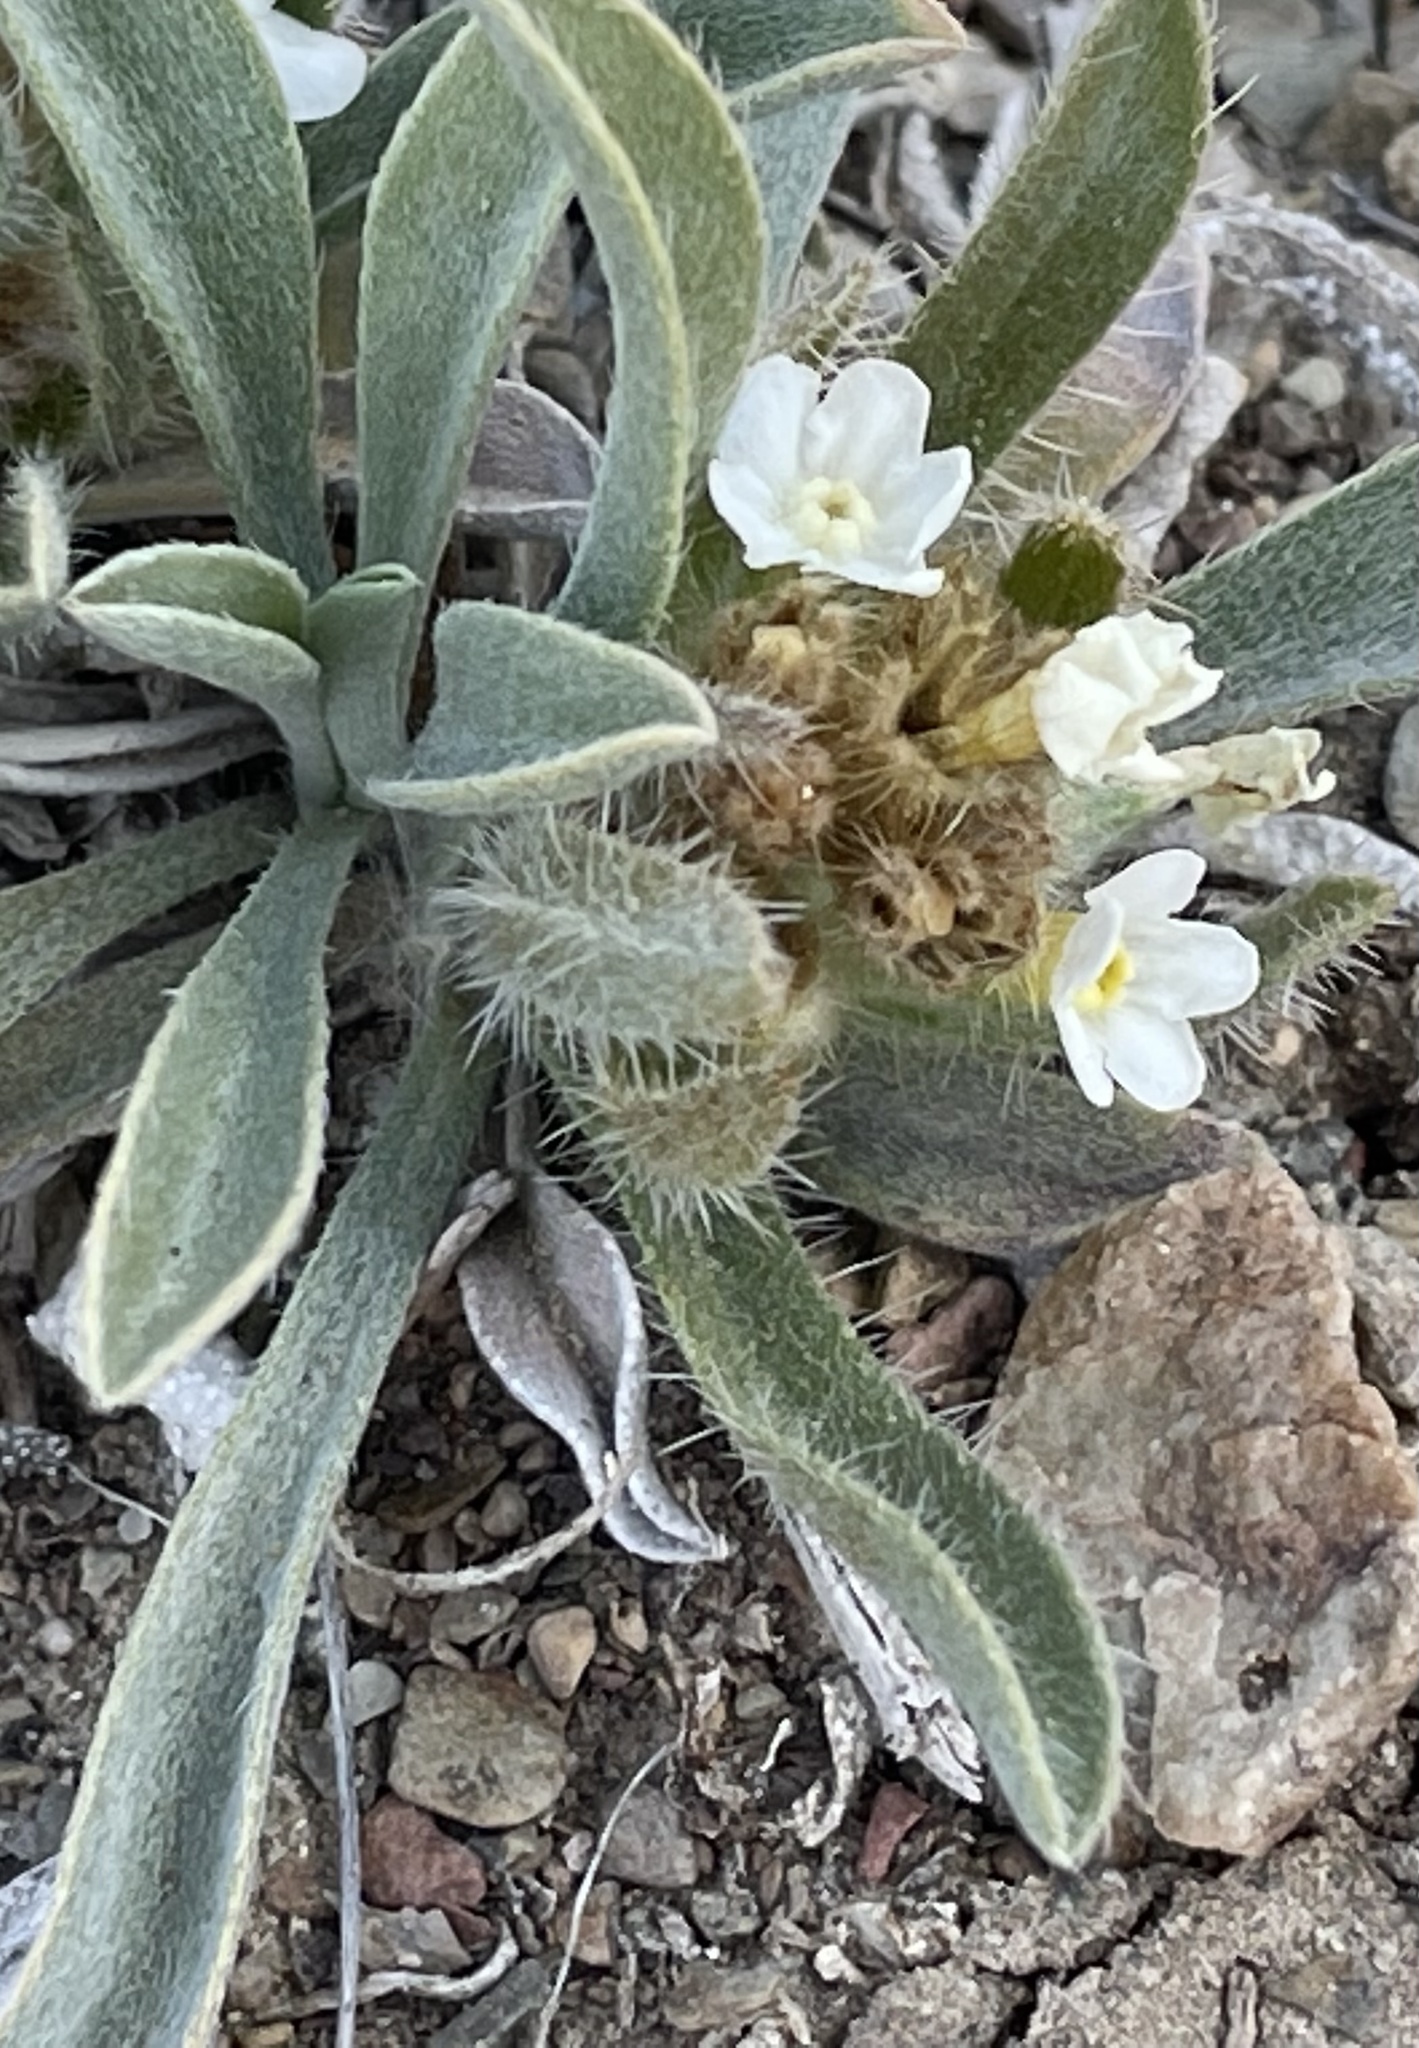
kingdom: Plantae
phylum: Tracheophyta
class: Magnoliopsida
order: Boraginales
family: Boraginaceae
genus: Oreocarya
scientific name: Oreocarya flavoculata
